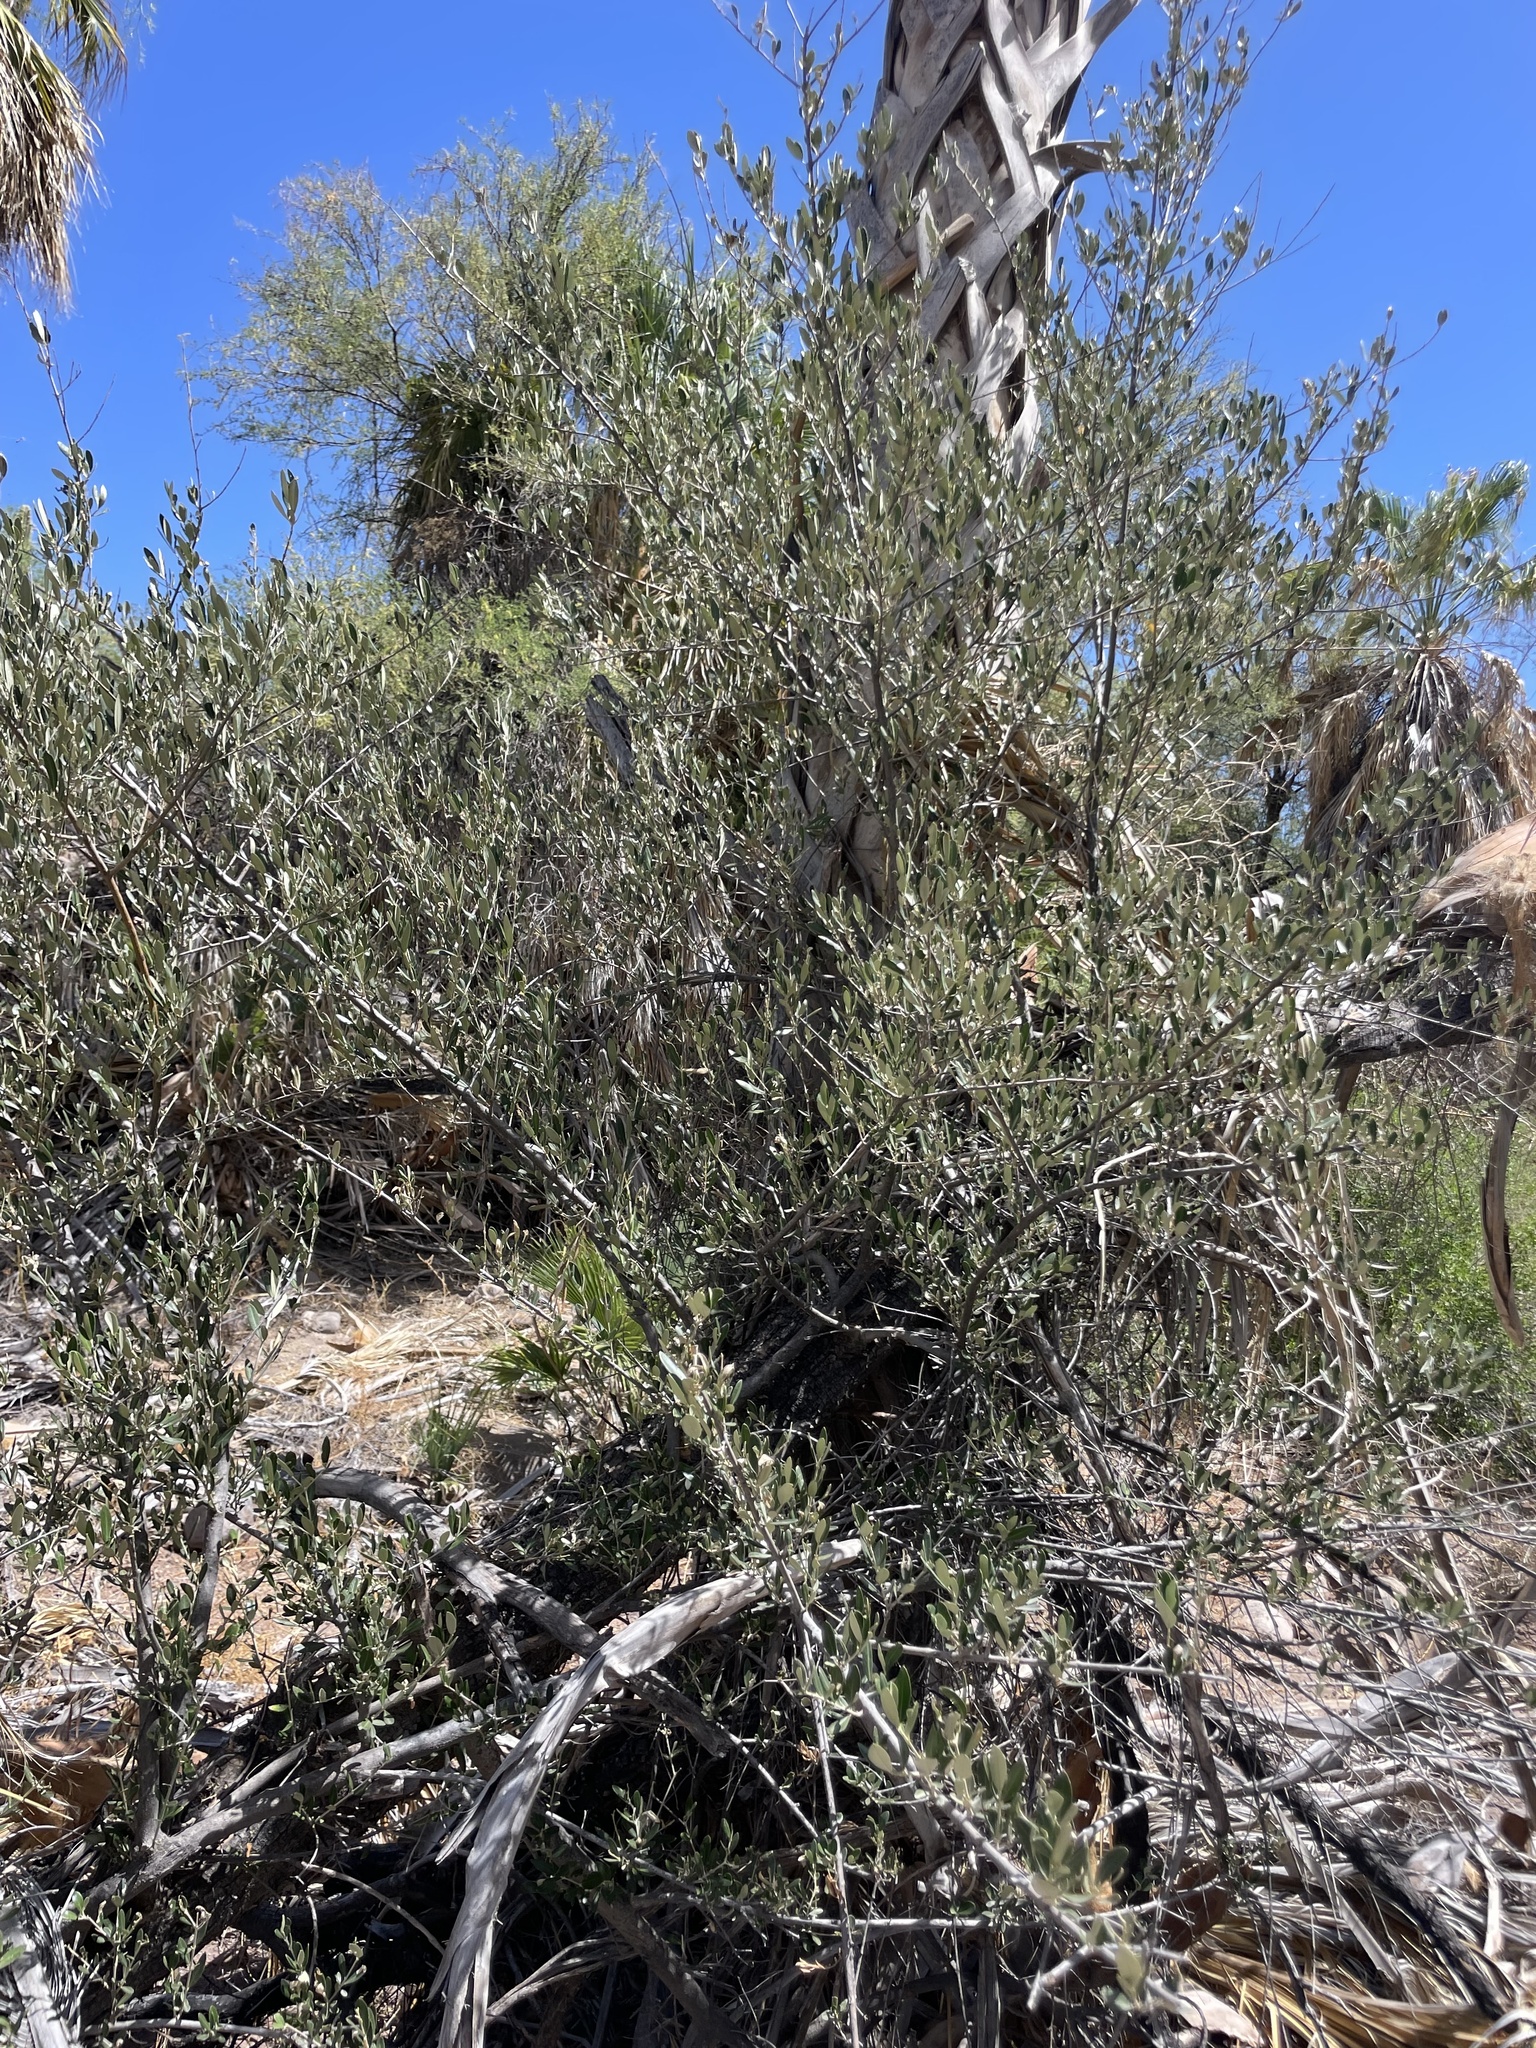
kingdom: Plantae
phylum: Tracheophyta
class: Magnoliopsida
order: Lamiales
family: Oleaceae
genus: Olea
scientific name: Olea europaea
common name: Olive
